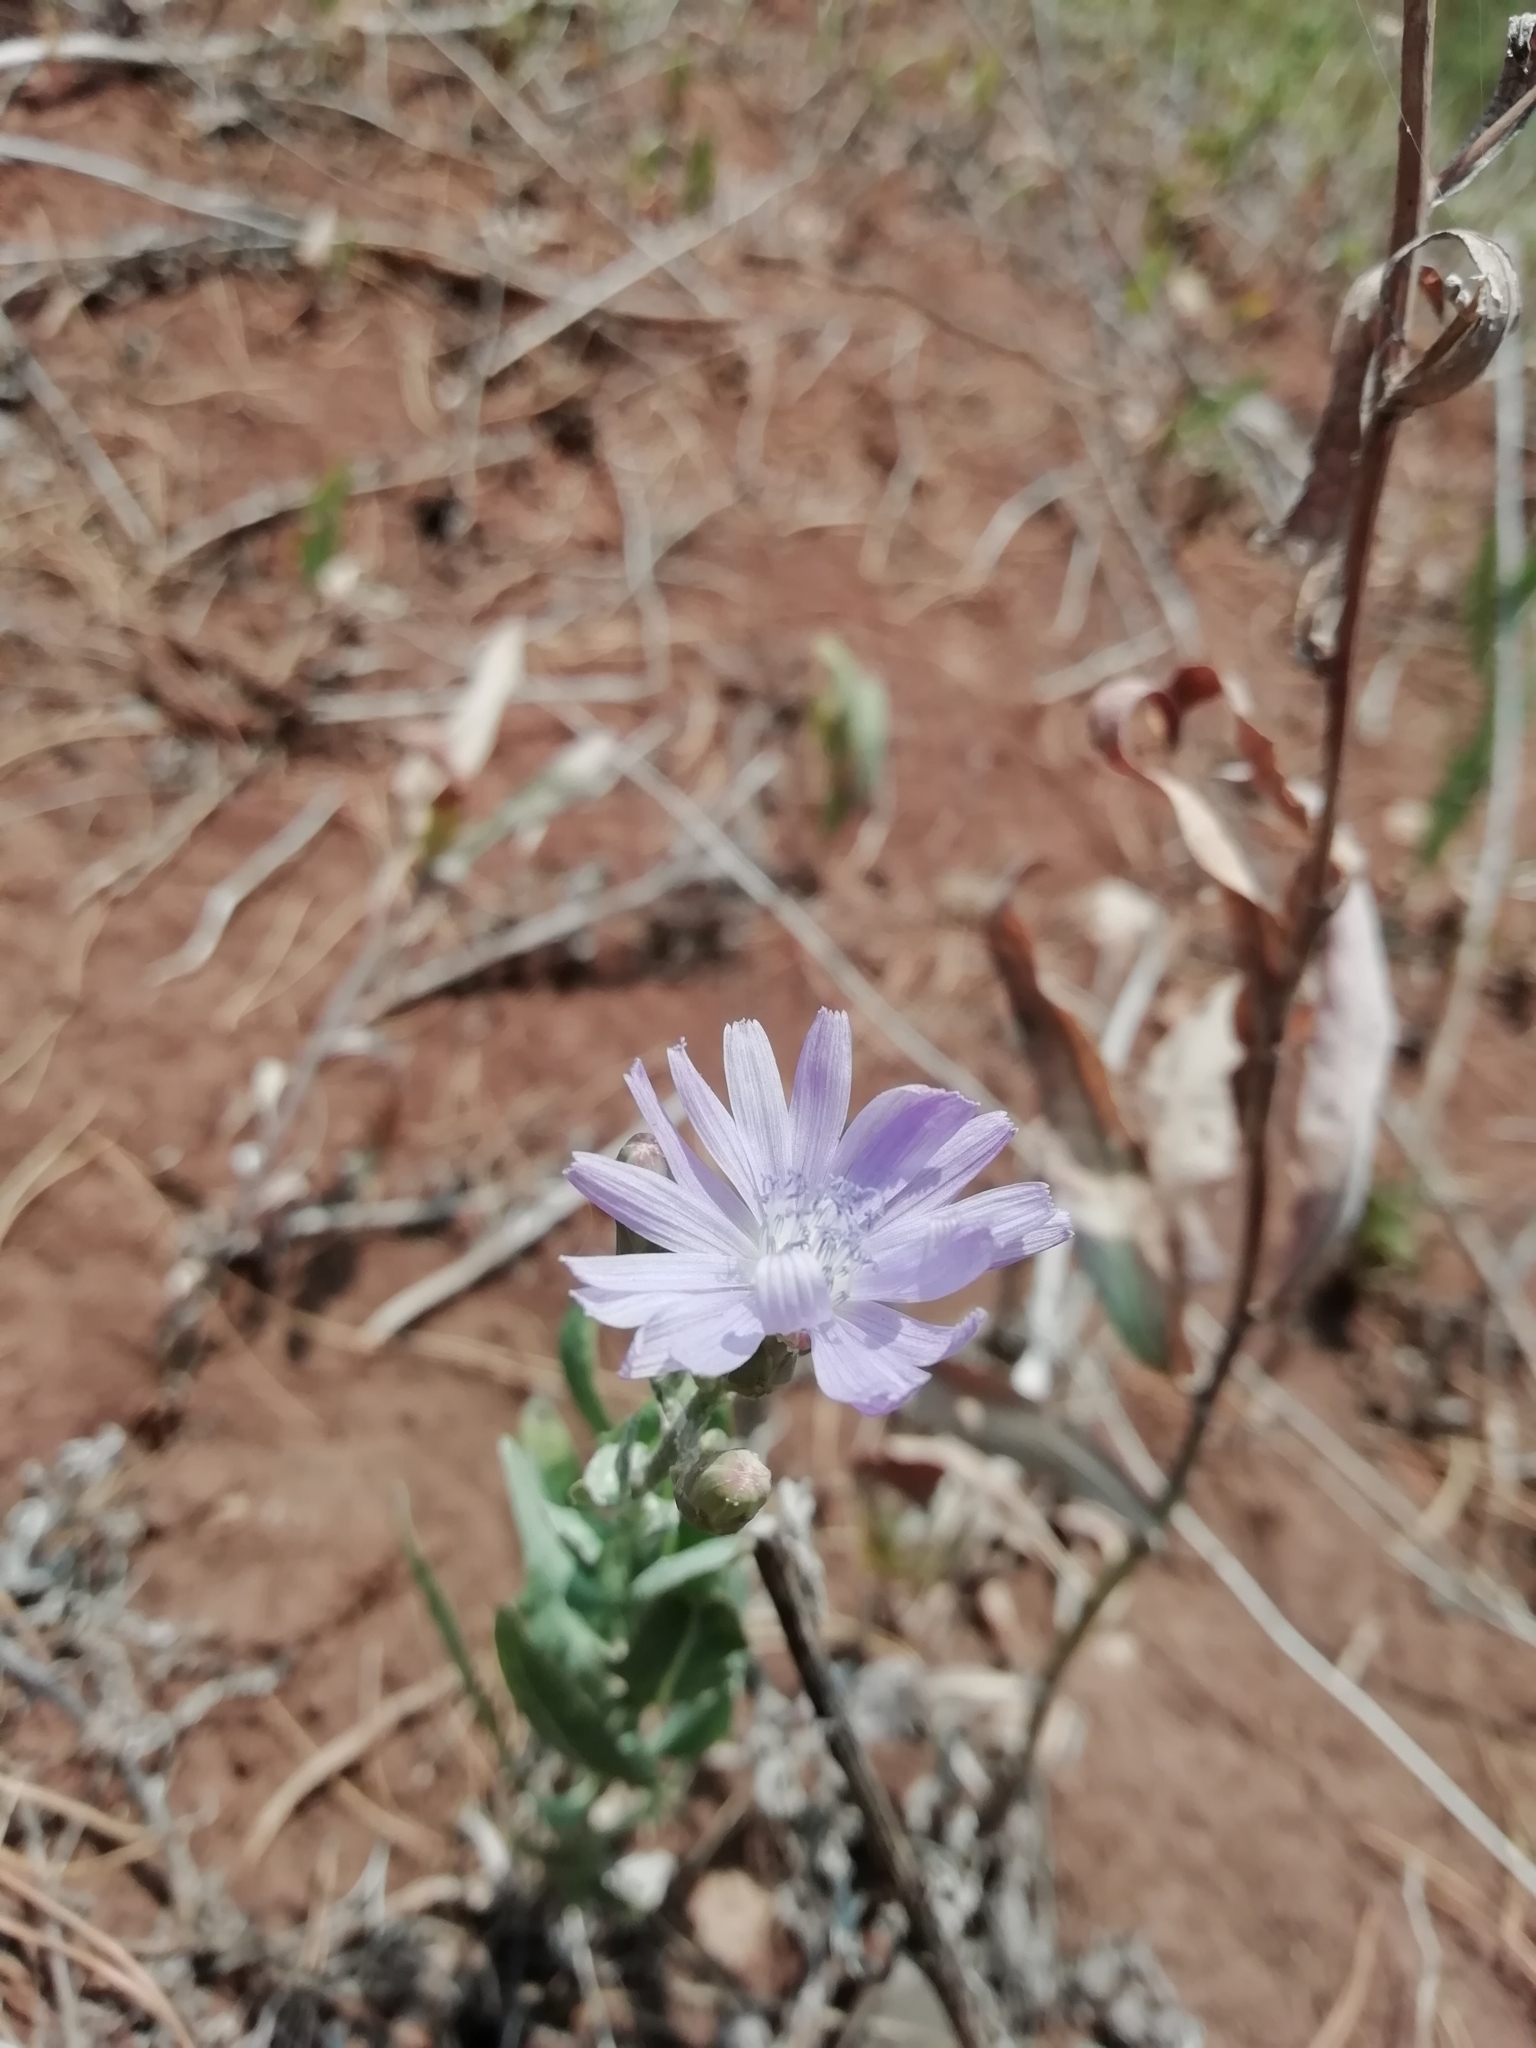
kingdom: Plantae
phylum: Tracheophyta
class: Magnoliopsida
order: Asterales
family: Asteraceae
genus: Lactuca
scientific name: Lactuca tatarica
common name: Blue lettuce
